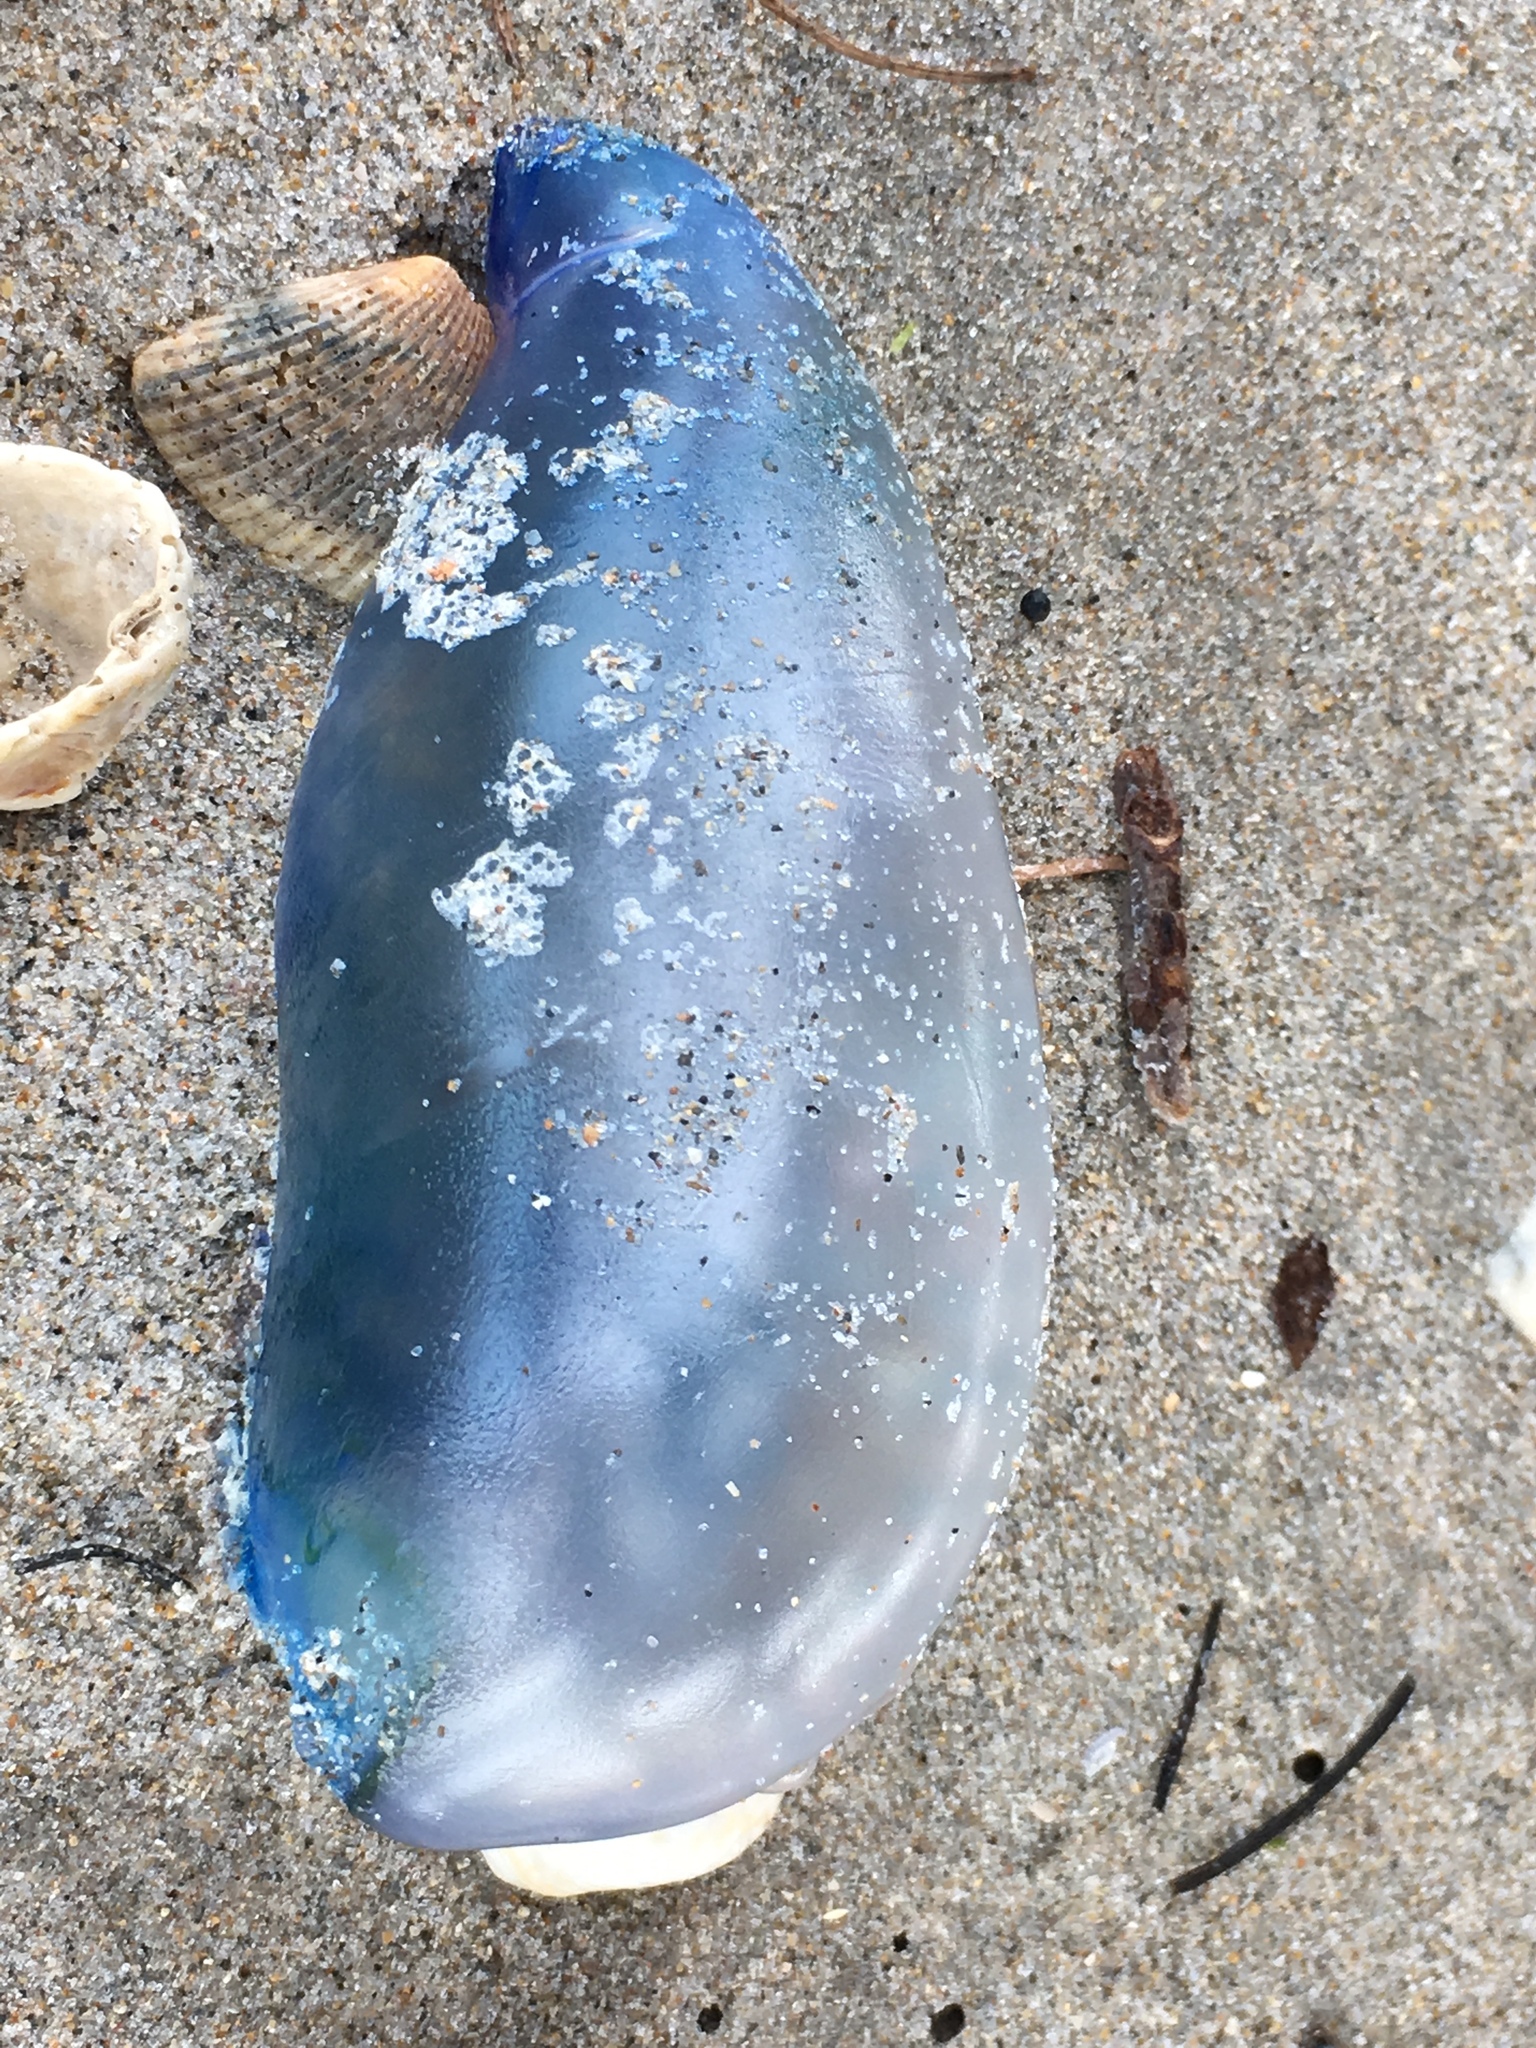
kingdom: Animalia
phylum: Cnidaria
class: Hydrozoa
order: Siphonophorae
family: Physaliidae
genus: Physalia
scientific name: Physalia physalis
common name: Portuguese man-of-war
